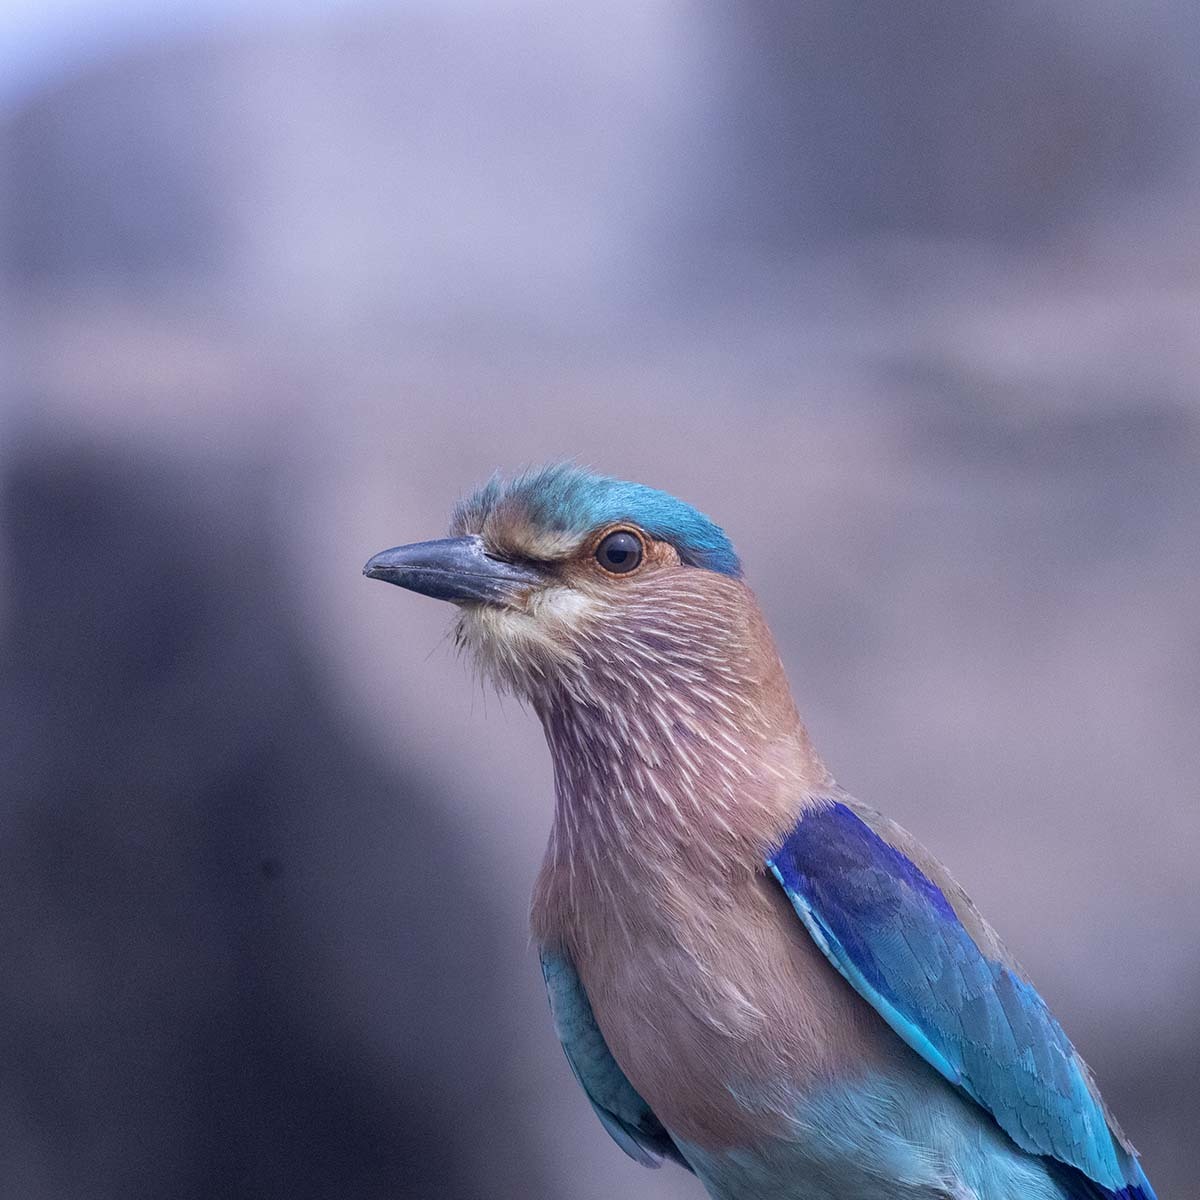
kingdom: Animalia
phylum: Chordata
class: Aves
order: Coraciiformes
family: Coraciidae
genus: Coracias
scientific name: Coracias benghalensis
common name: Indian roller
